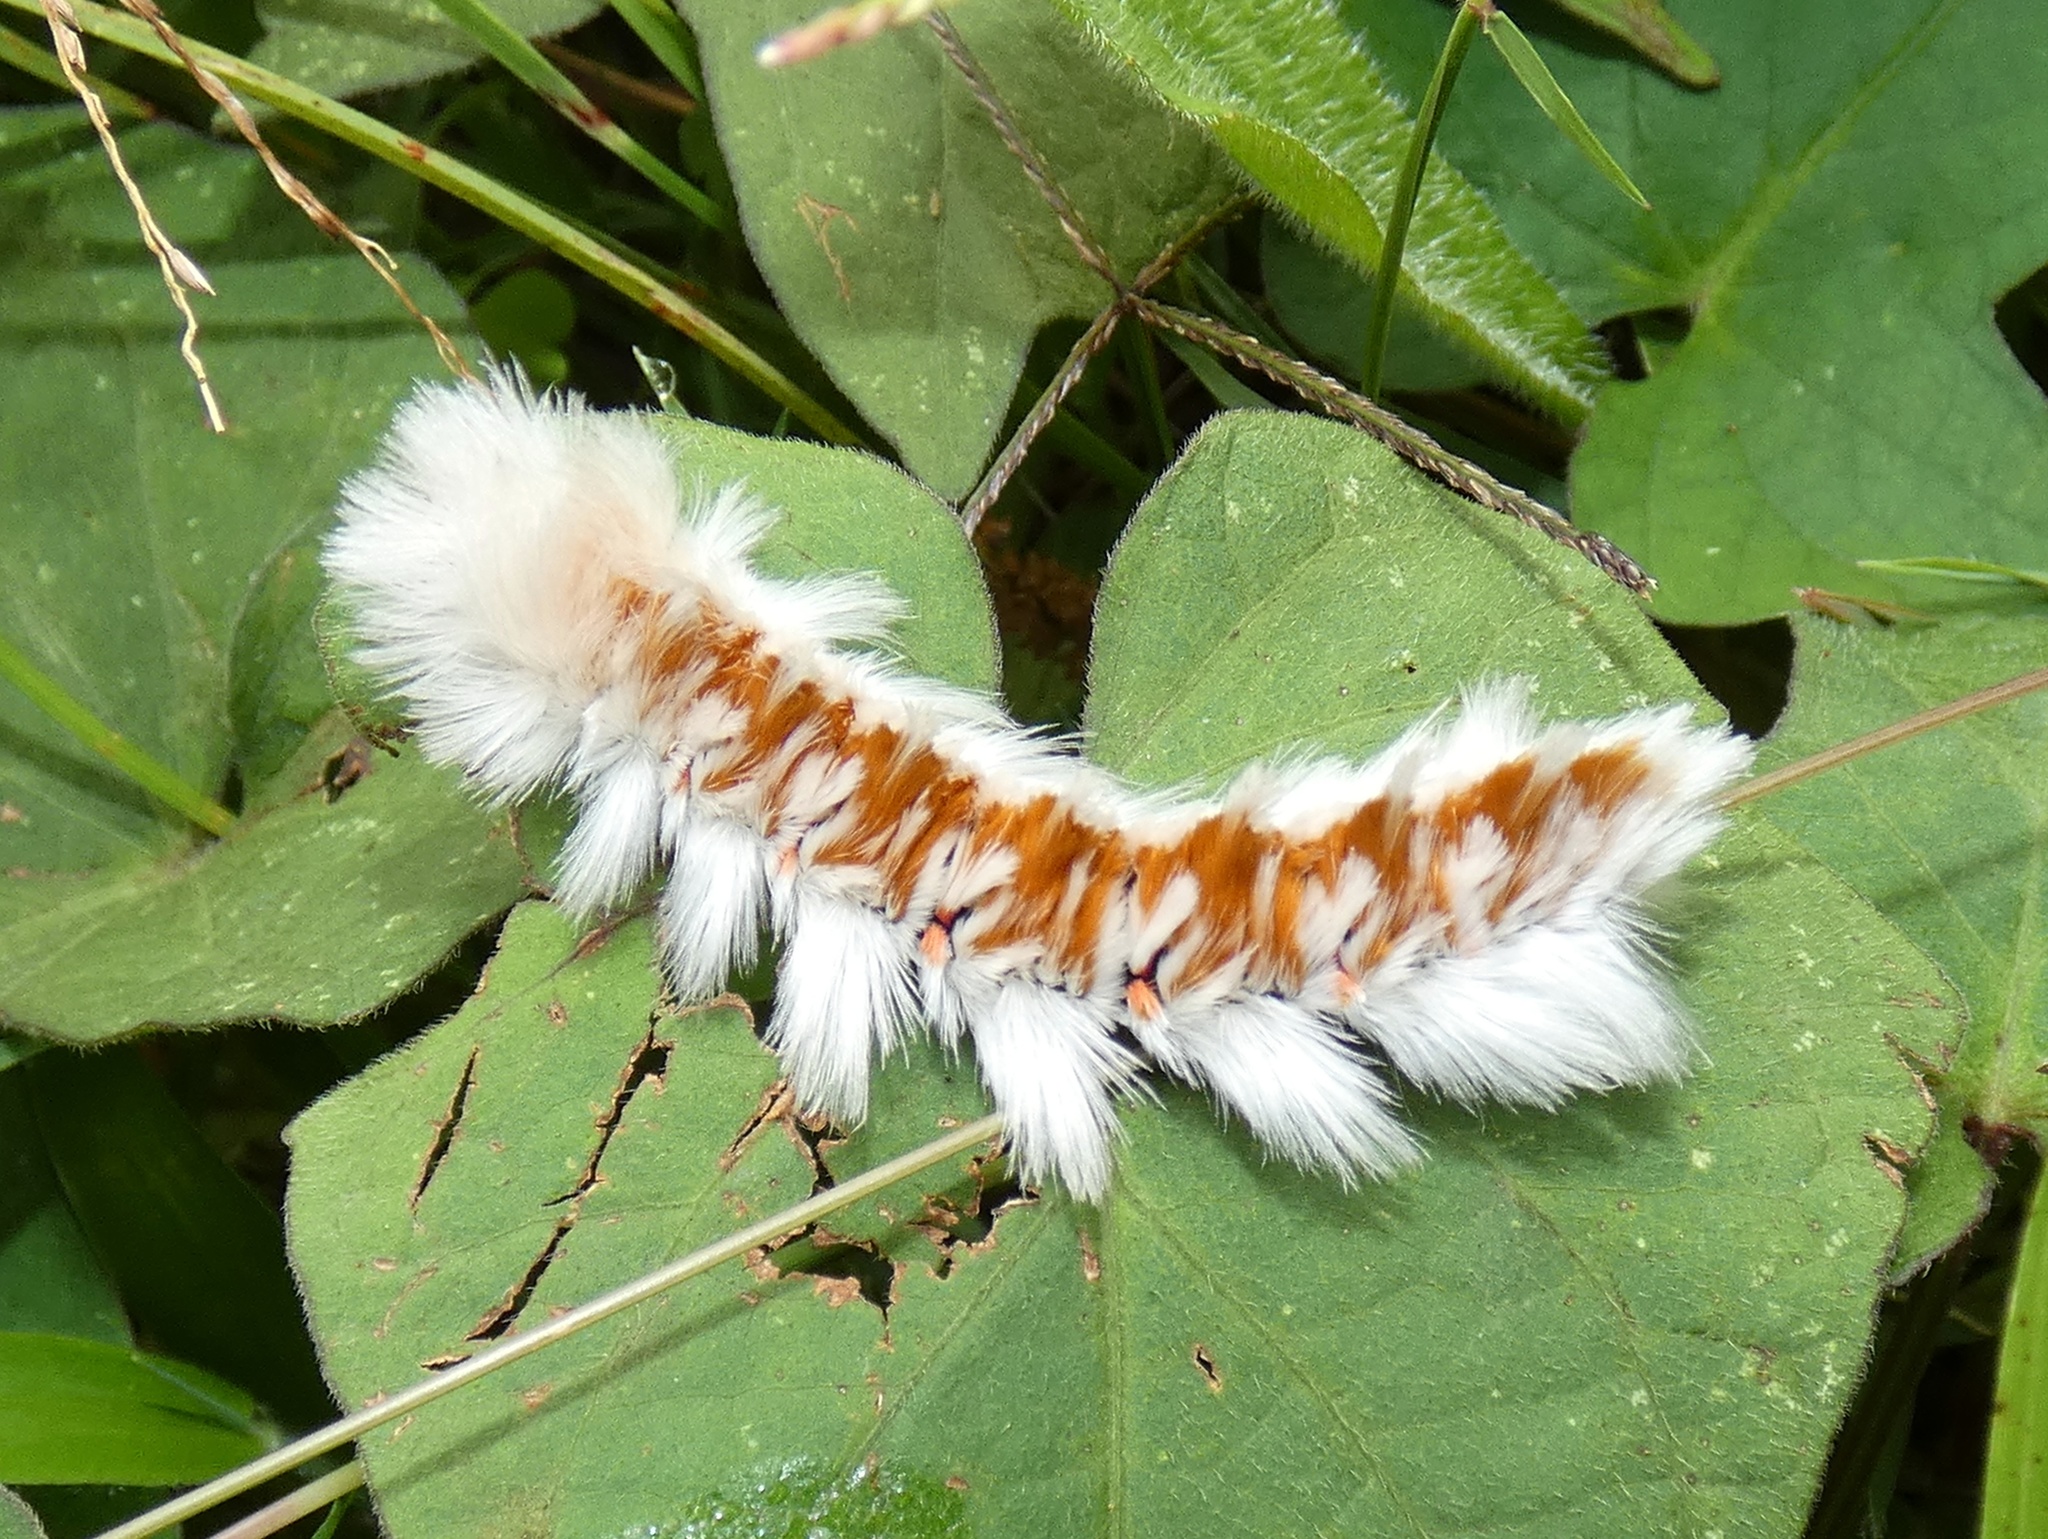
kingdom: Animalia
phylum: Arthropoda
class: Insecta
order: Lepidoptera
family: Eupterotidae
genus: Neopreptos
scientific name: Neopreptos marathusa
